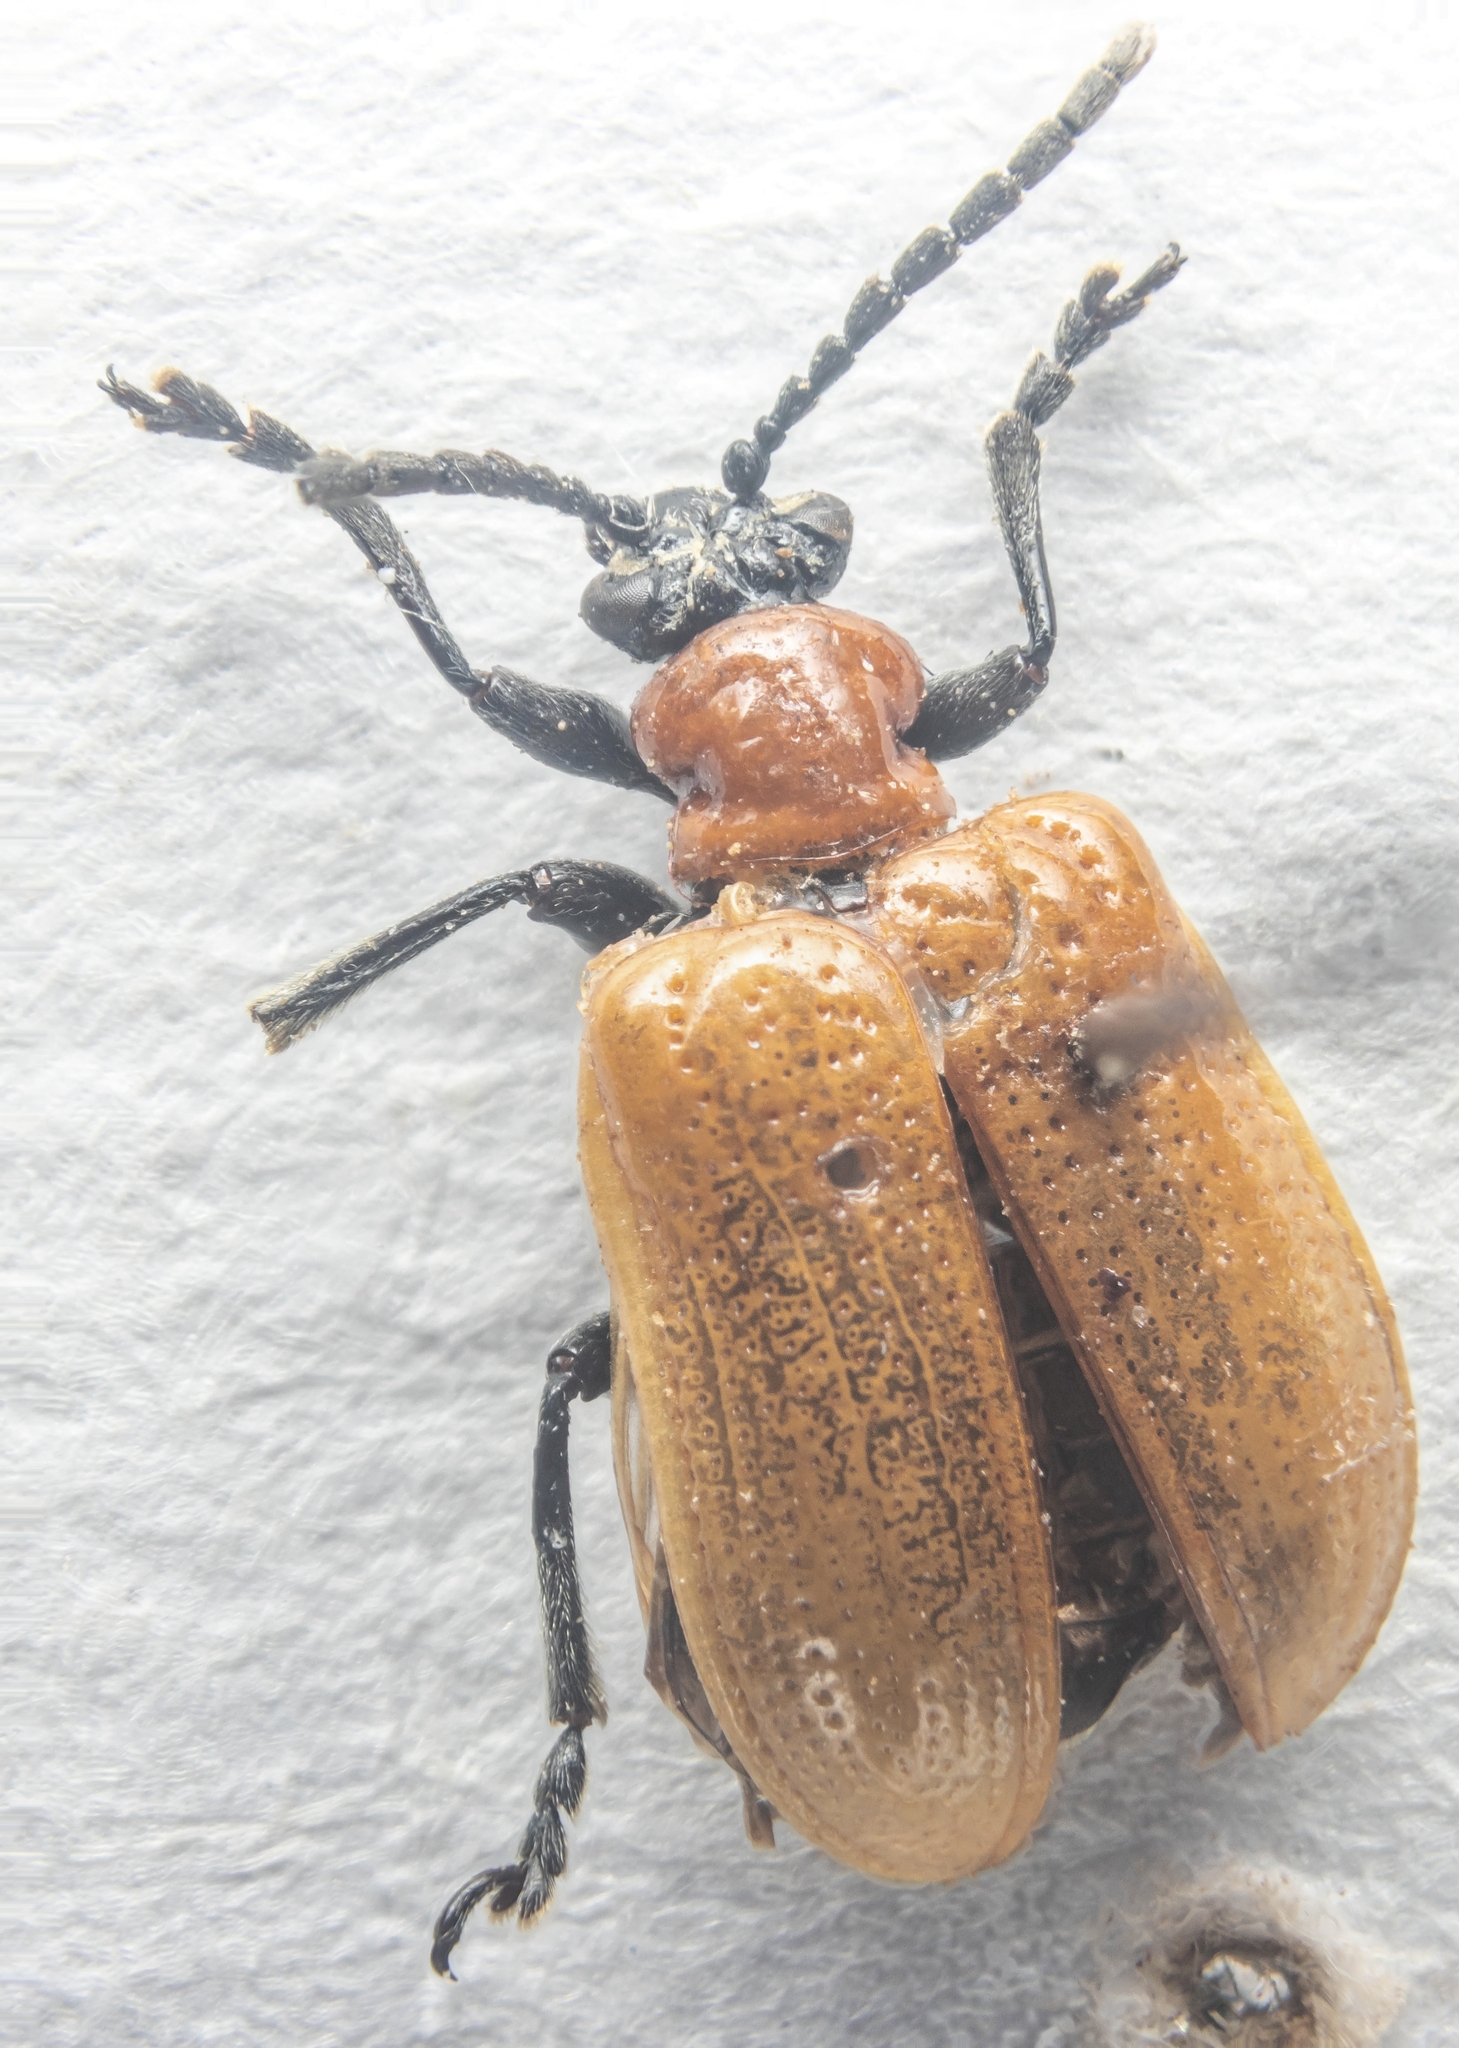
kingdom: Animalia
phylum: Arthropoda
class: Insecta
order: Coleoptera
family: Chrysomelidae
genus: Lilioceris
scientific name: Lilioceris lilii
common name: Lily beetle
